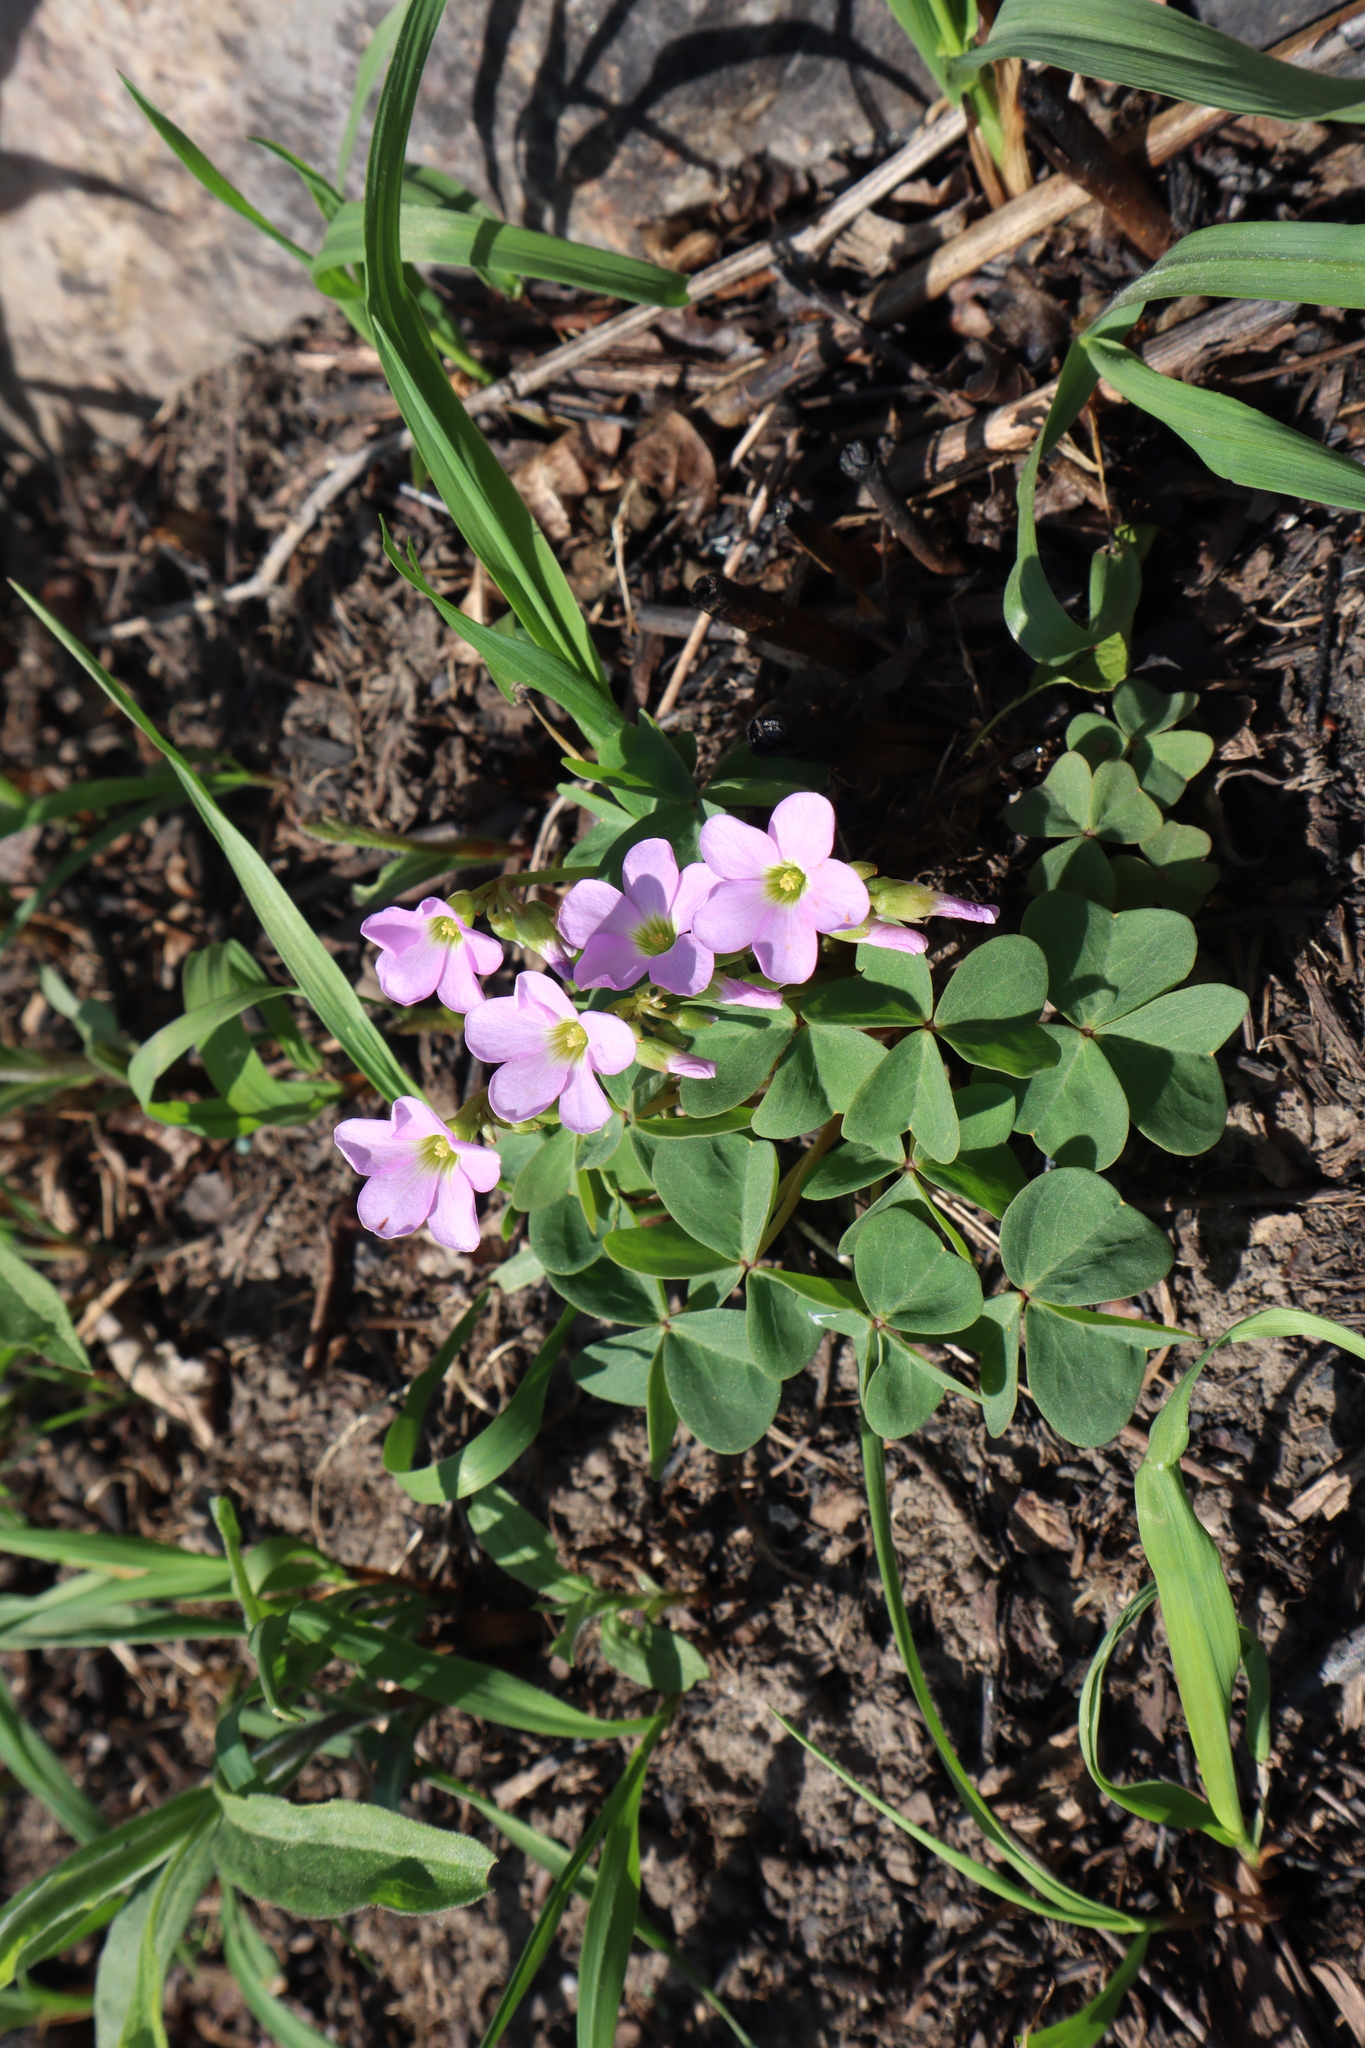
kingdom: Plantae
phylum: Tracheophyta
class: Magnoliopsida
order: Oxalidales
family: Oxalidaceae
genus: Oxalis
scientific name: Oxalis violacea
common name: Violet wood-sorrel
